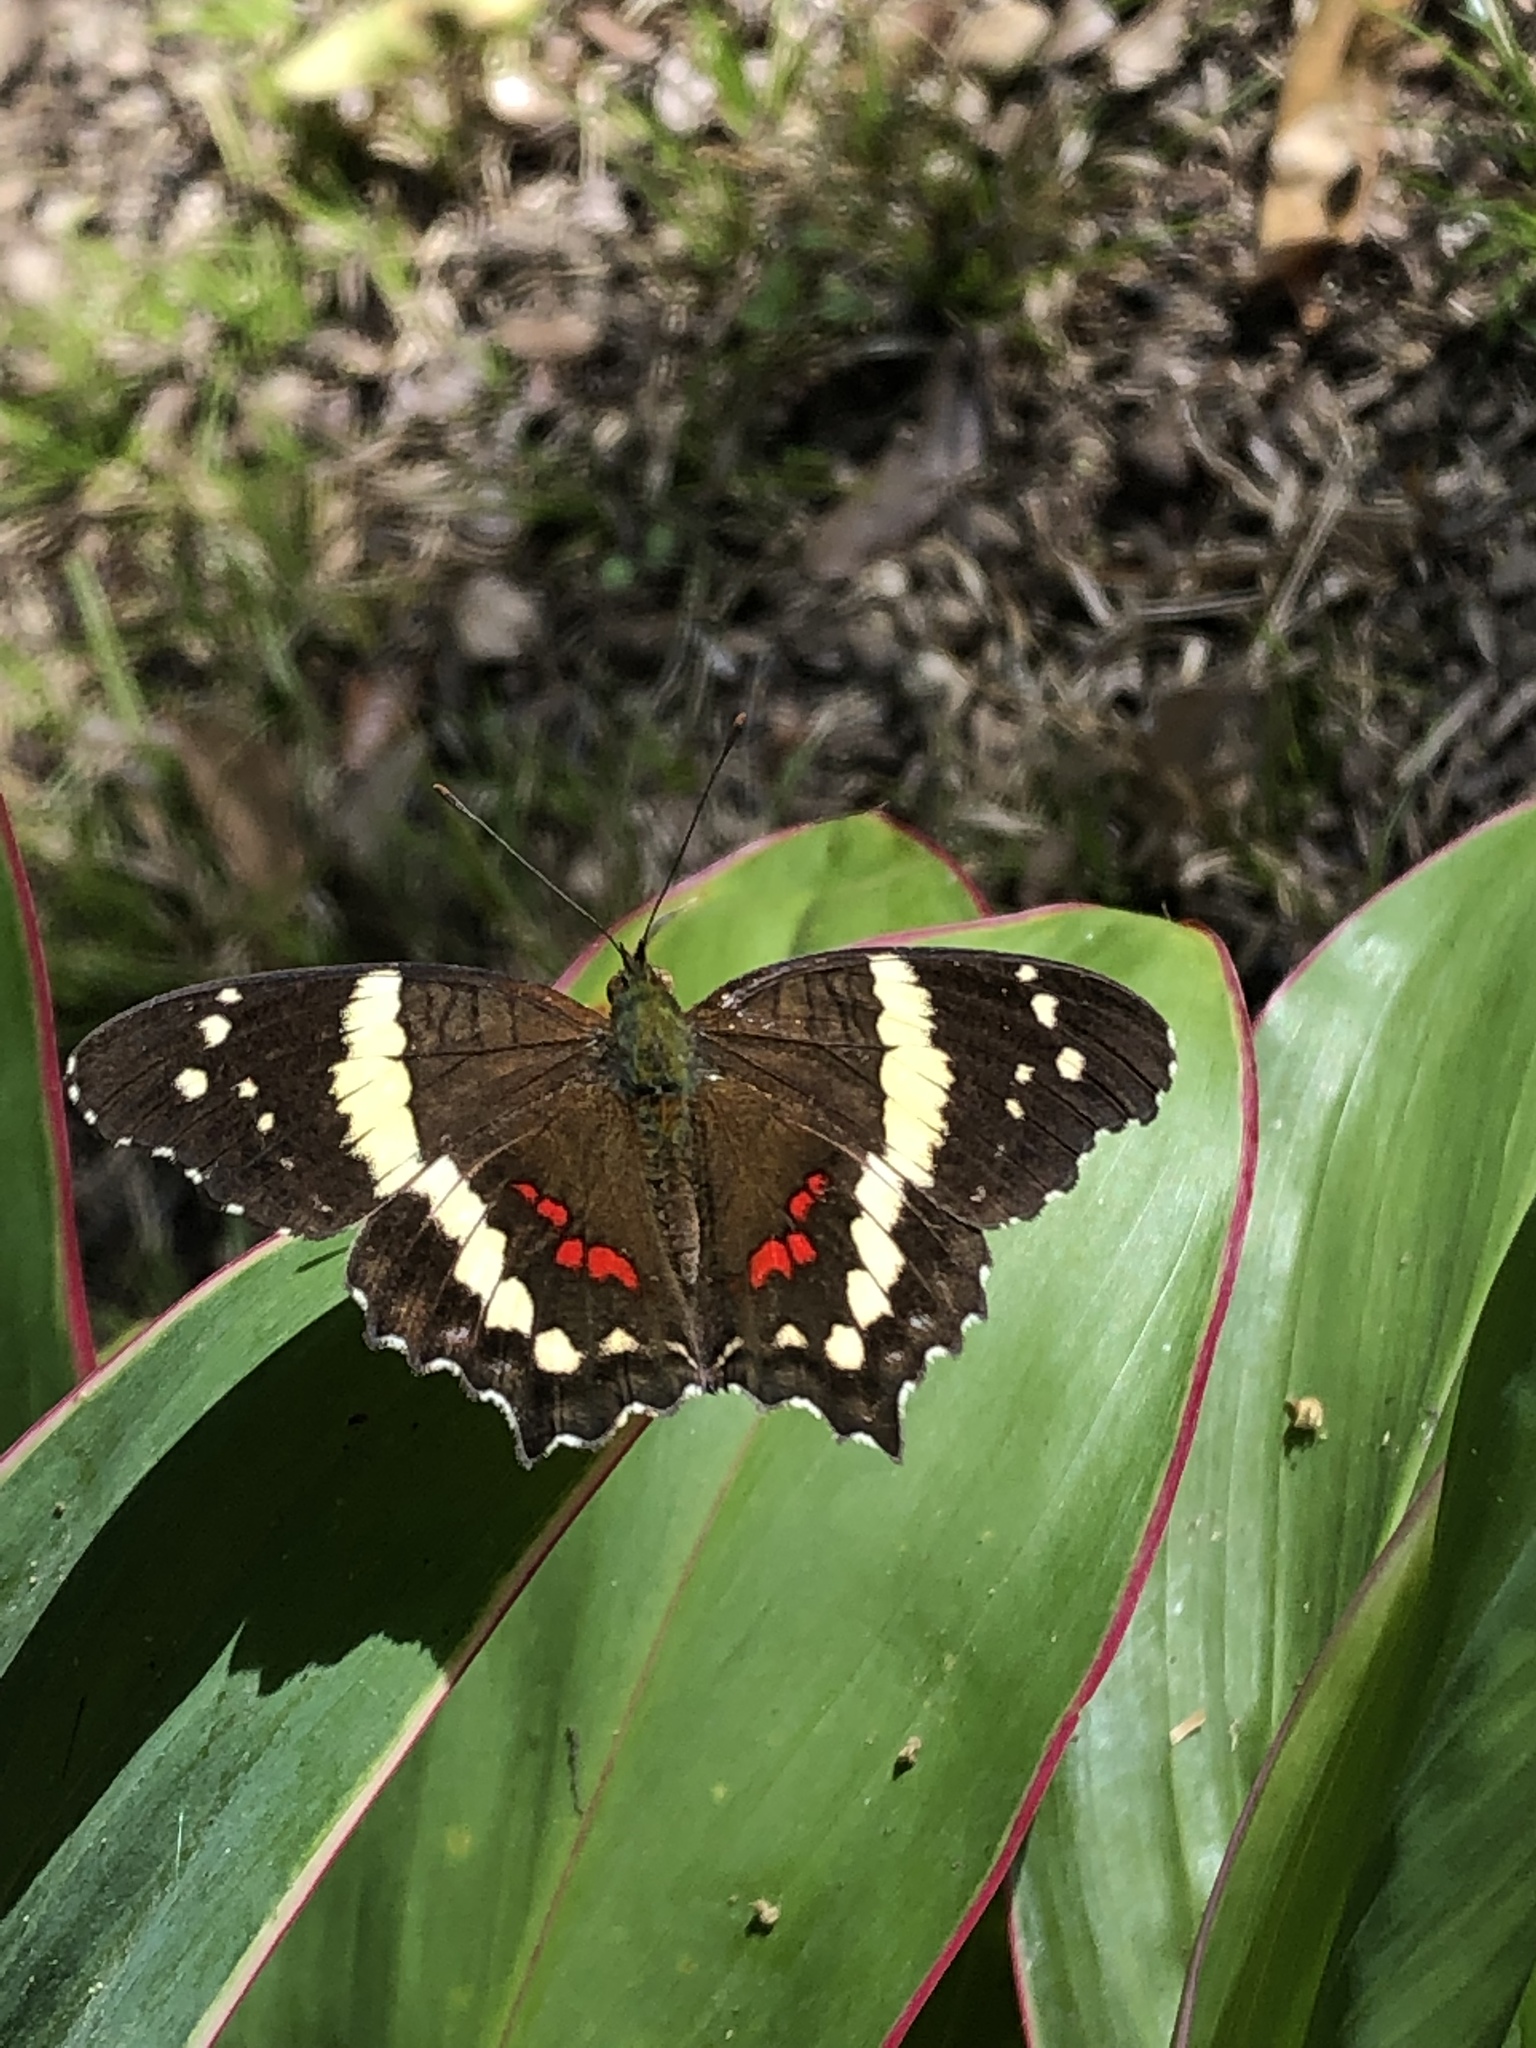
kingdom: Animalia
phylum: Arthropoda
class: Insecta
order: Lepidoptera
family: Nymphalidae
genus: Anartia
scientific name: Anartia fatima
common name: Banded peacock
